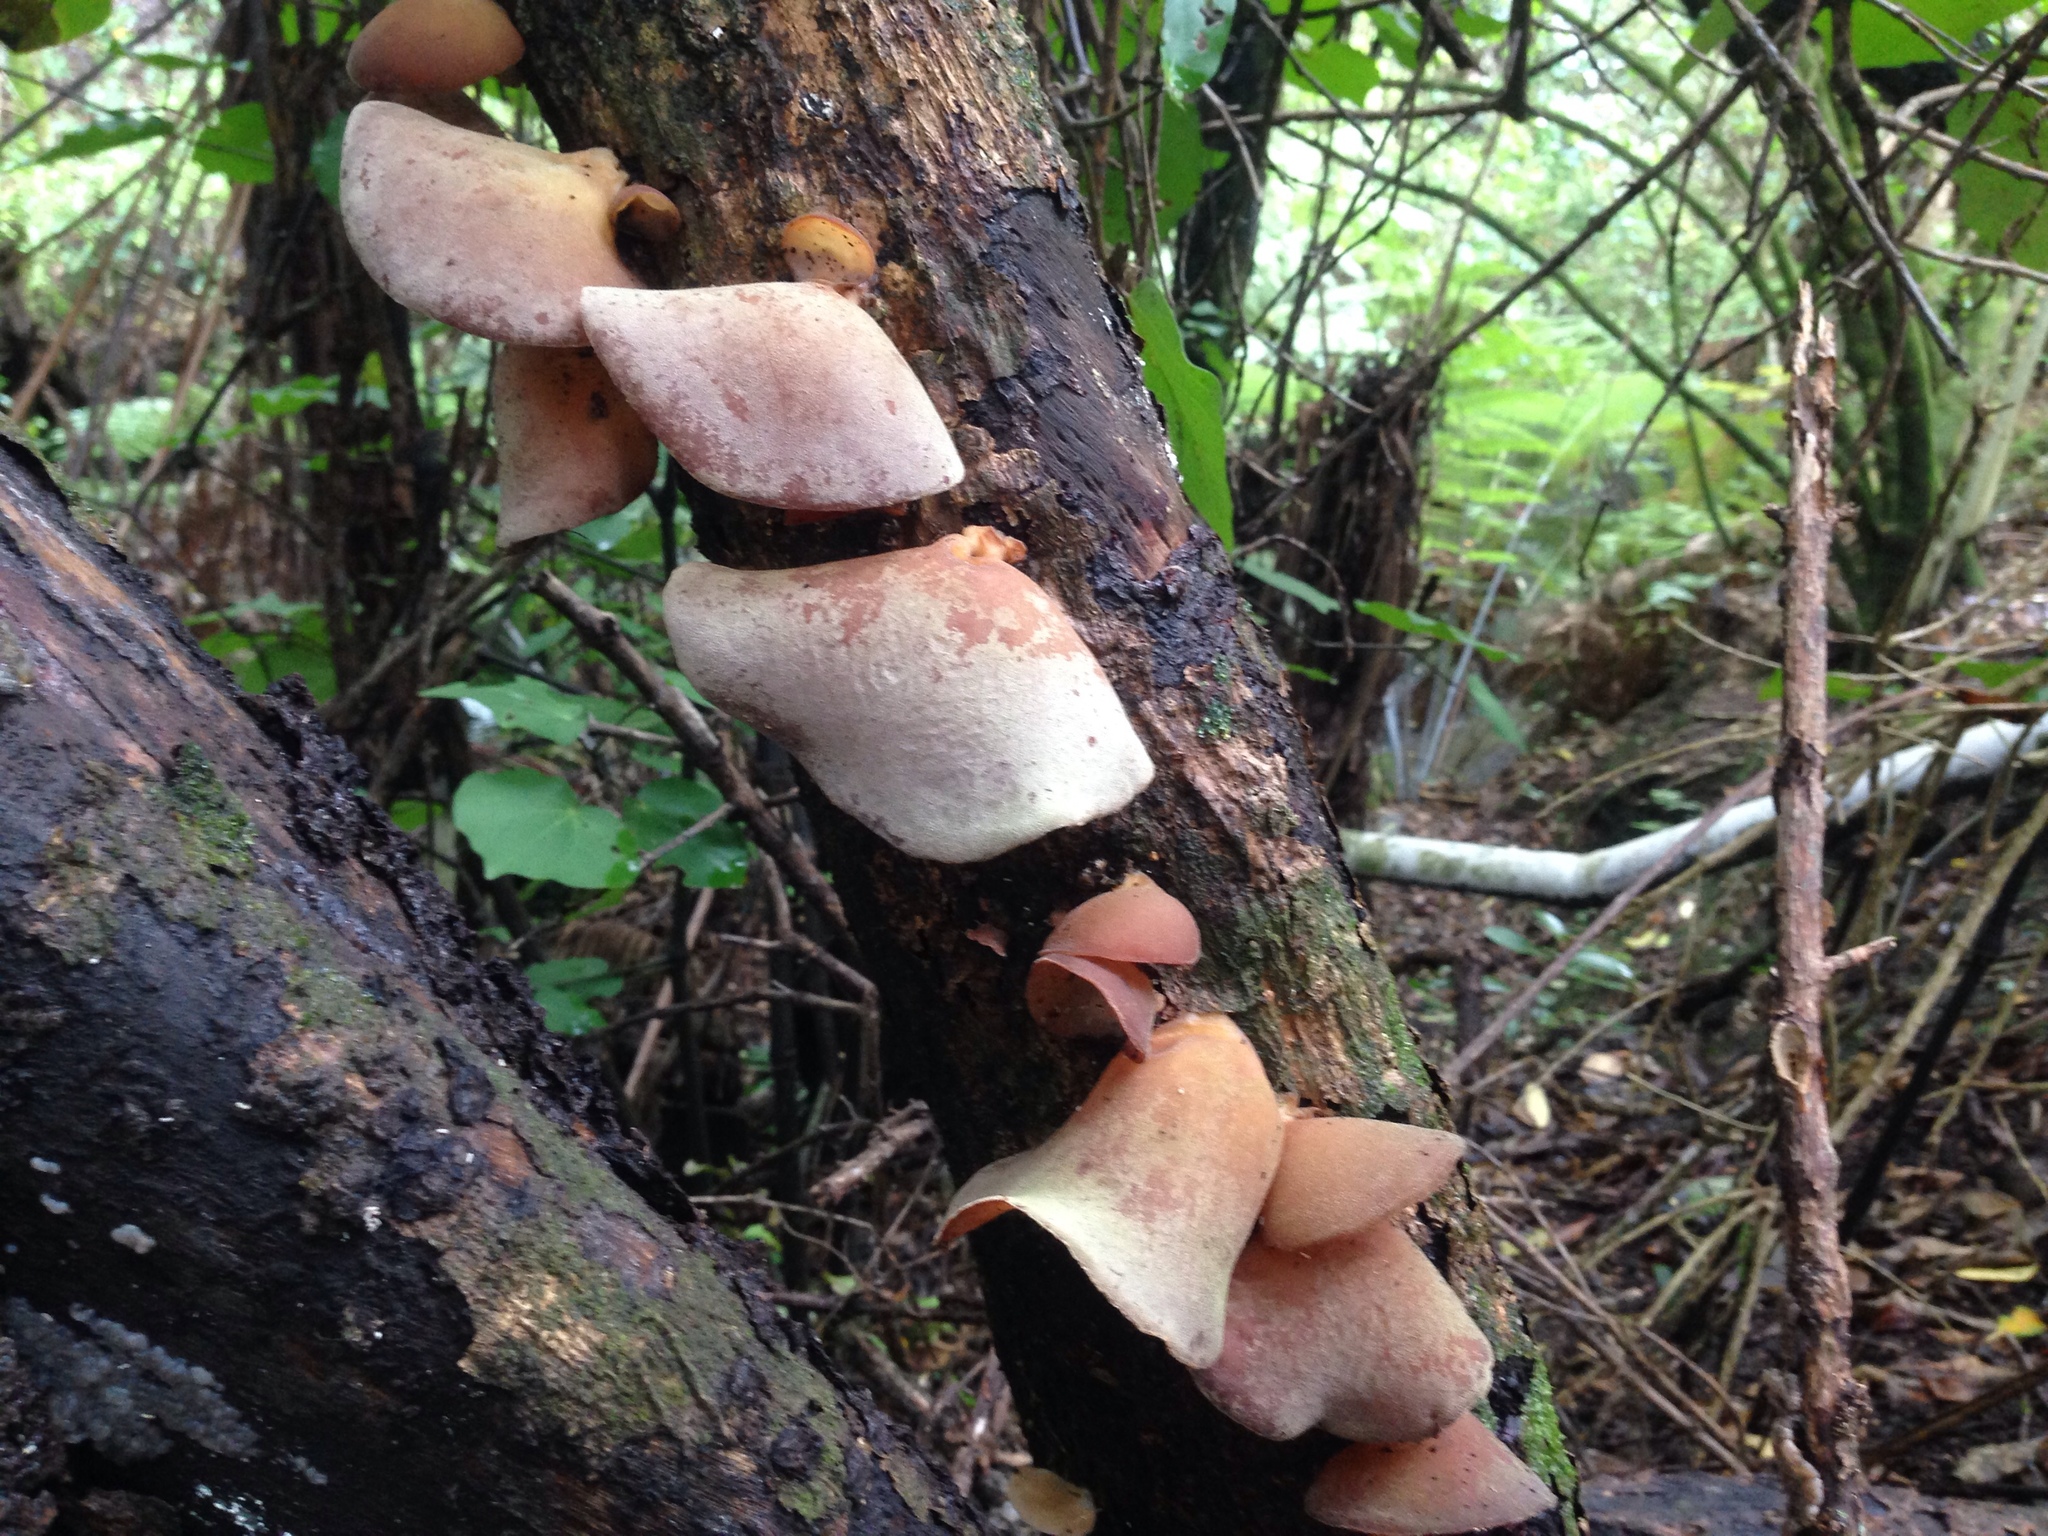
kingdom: Fungi
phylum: Basidiomycota
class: Agaricomycetes
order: Auriculariales
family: Auriculariaceae
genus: Auricularia
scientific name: Auricularia cornea
